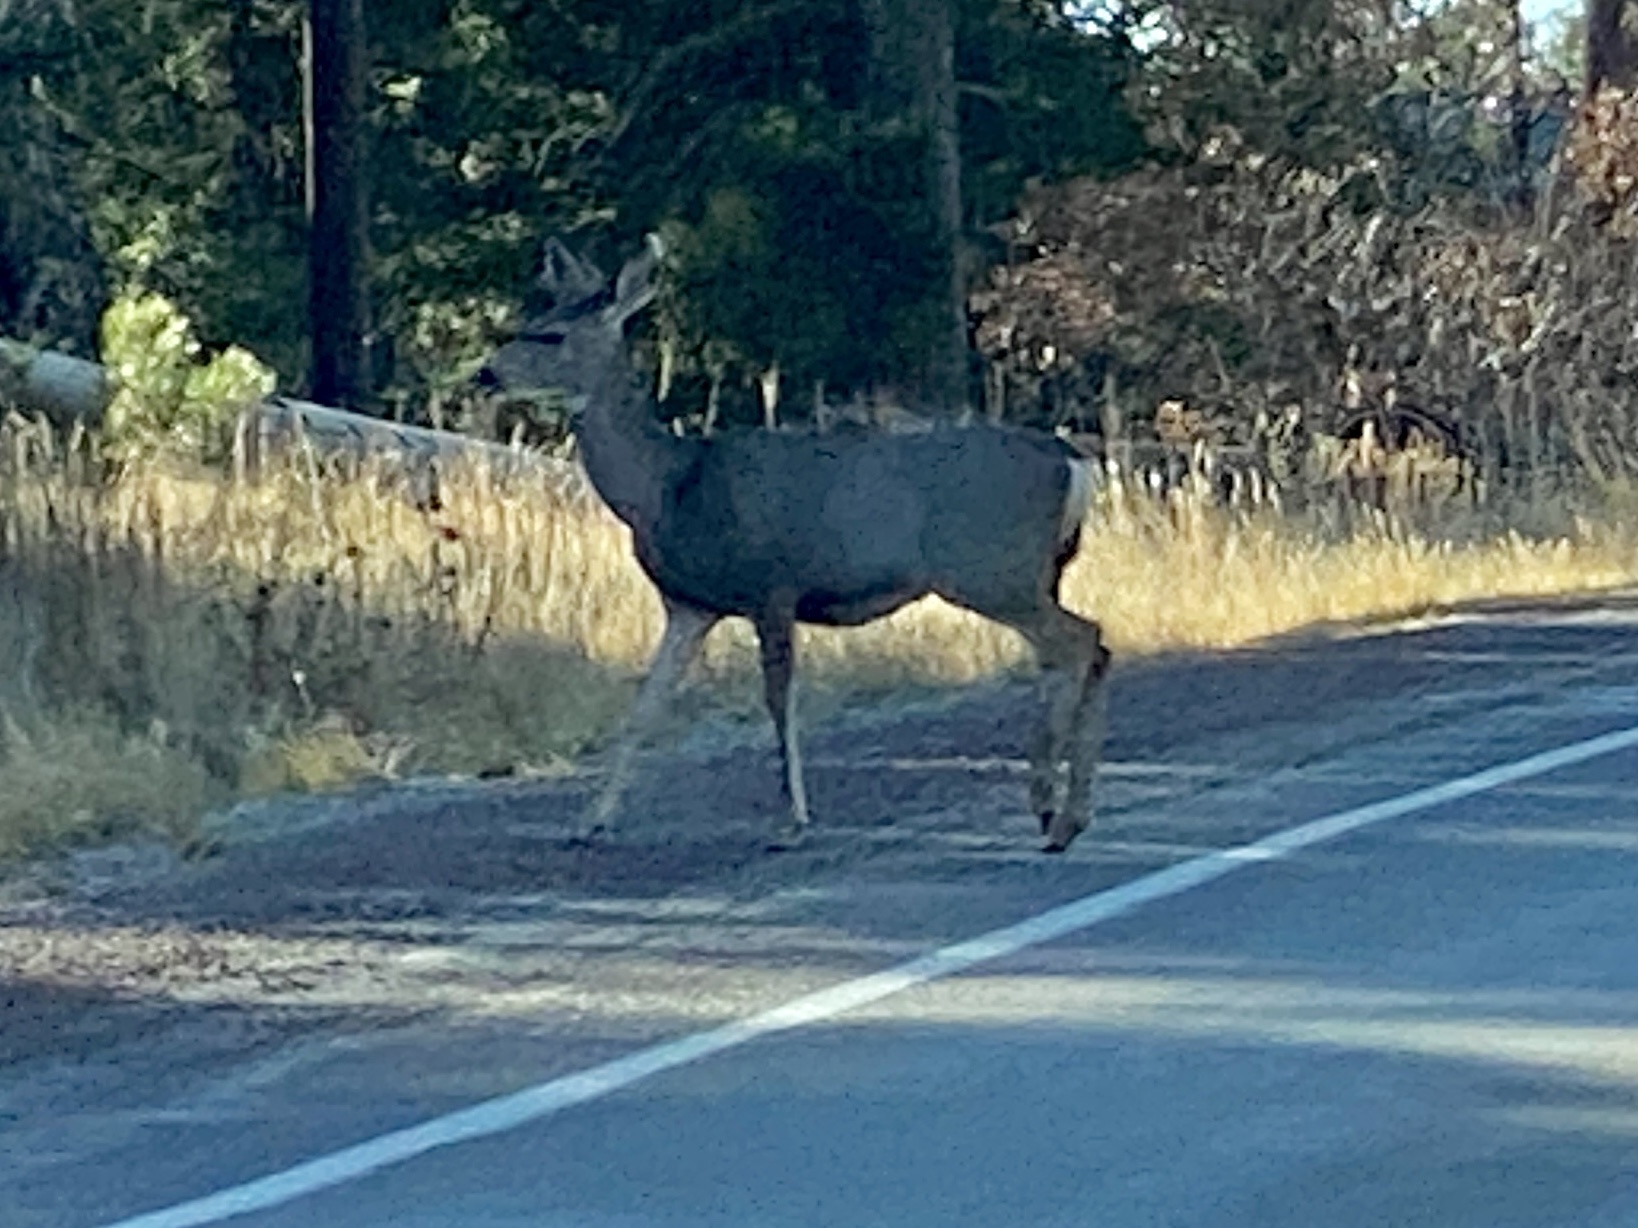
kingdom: Animalia
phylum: Chordata
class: Mammalia
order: Artiodactyla
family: Cervidae
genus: Odocoileus
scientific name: Odocoileus hemionus
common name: Mule deer
